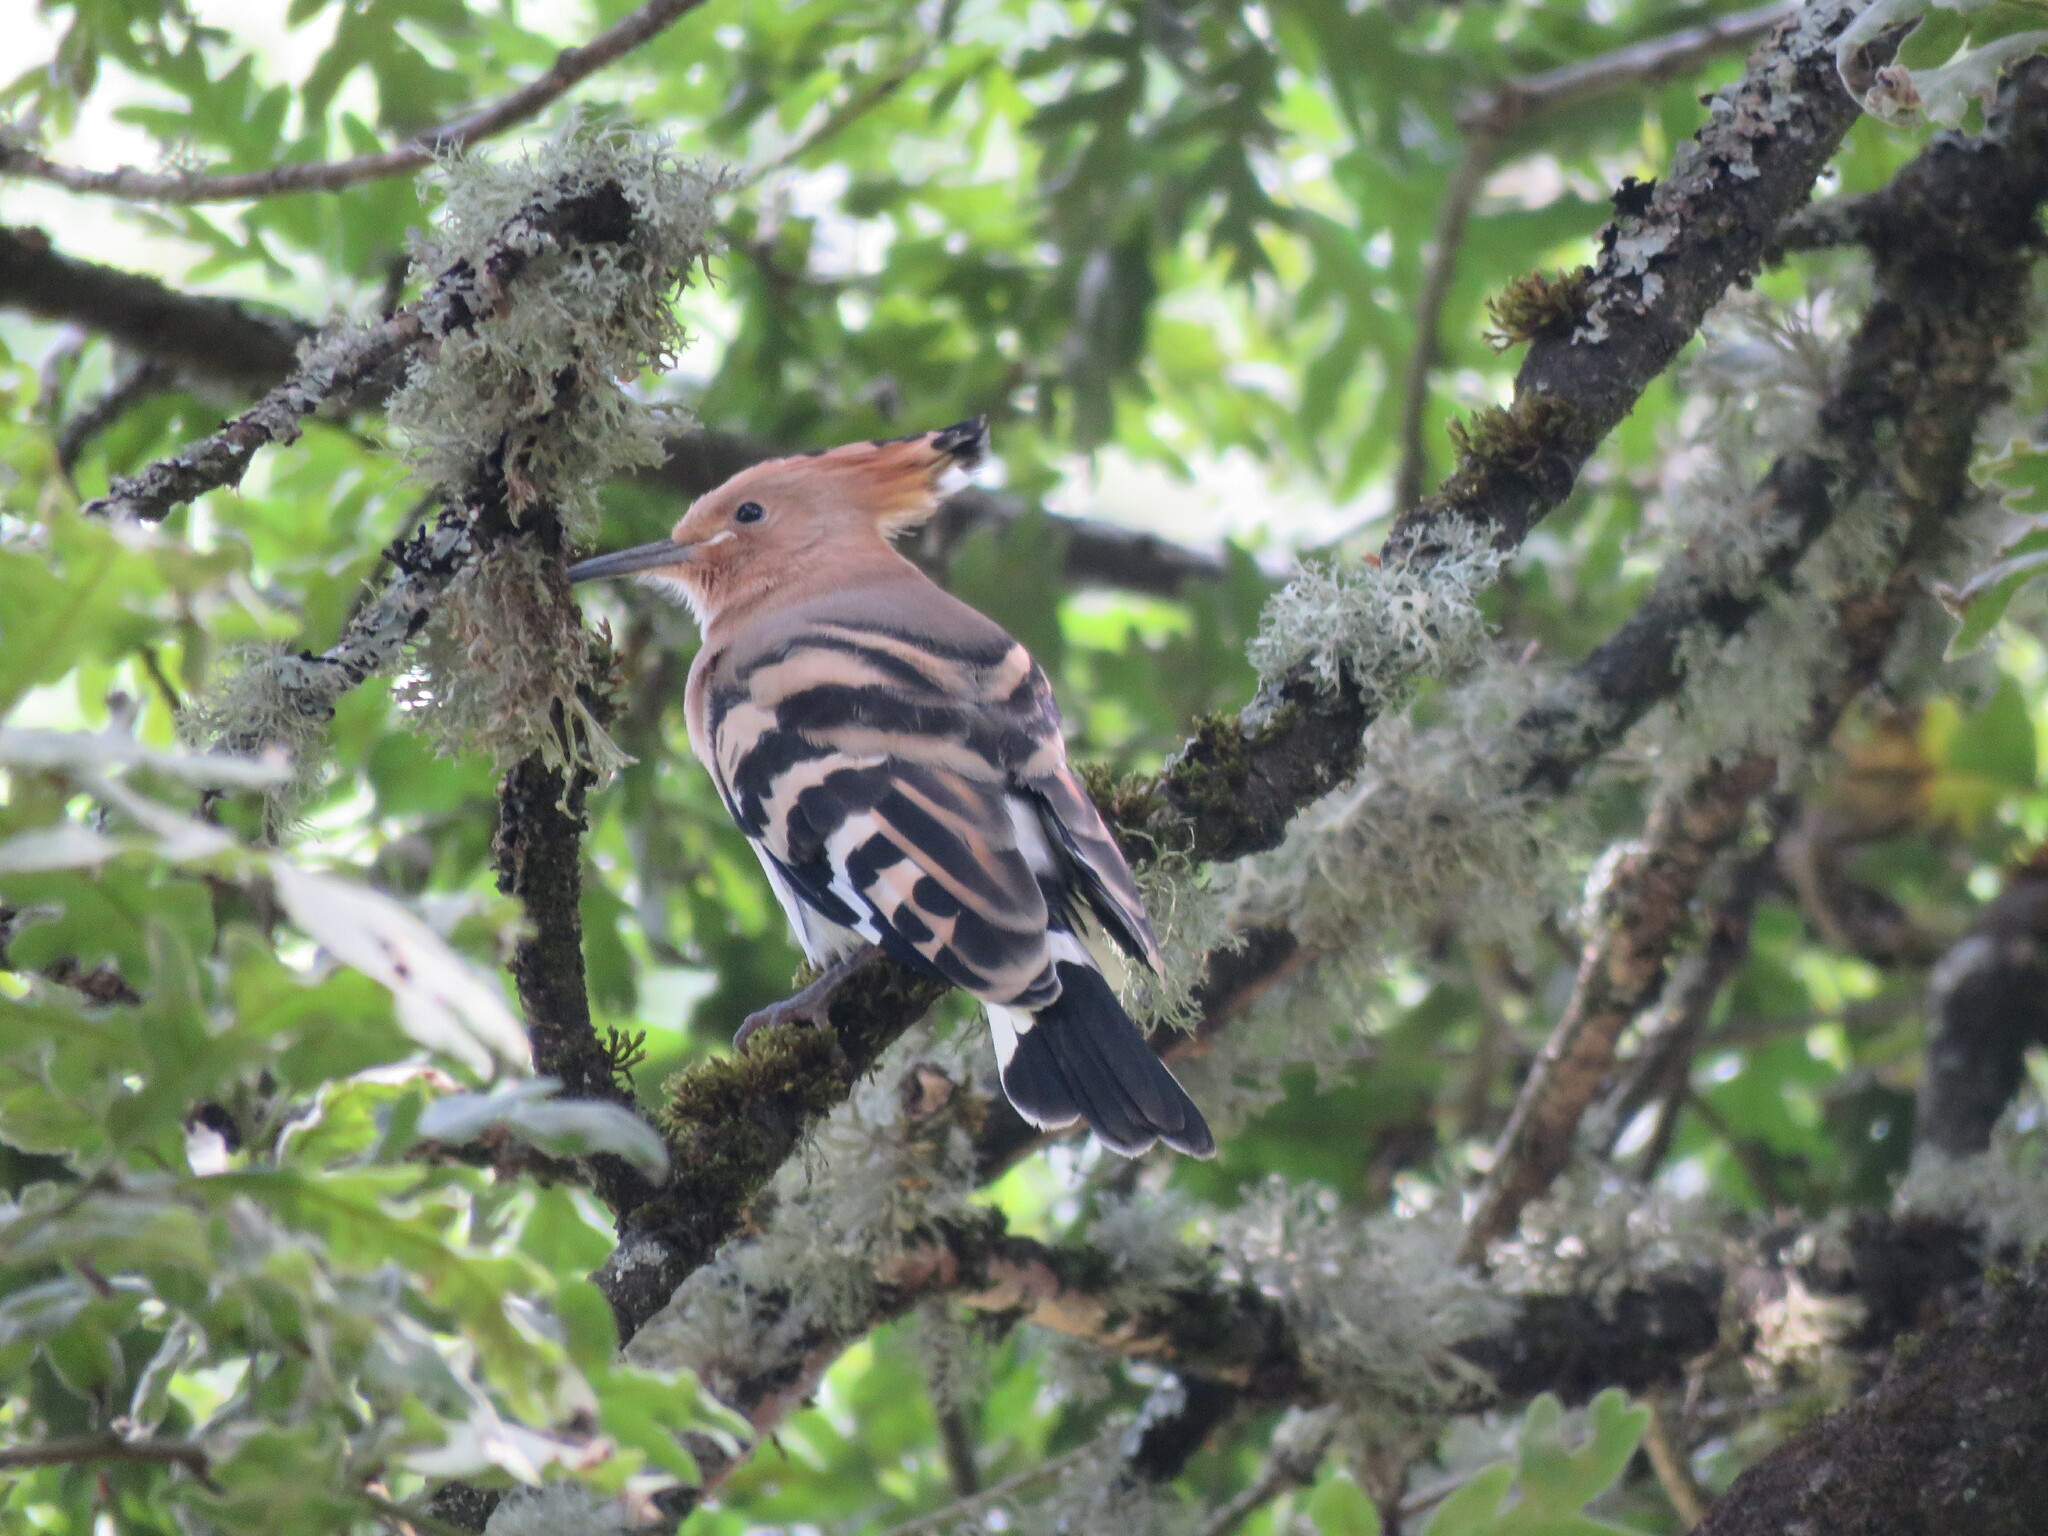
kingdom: Animalia
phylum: Chordata
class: Aves
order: Bucerotiformes
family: Upupidae
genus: Upupa
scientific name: Upupa epops
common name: Eurasian hoopoe
